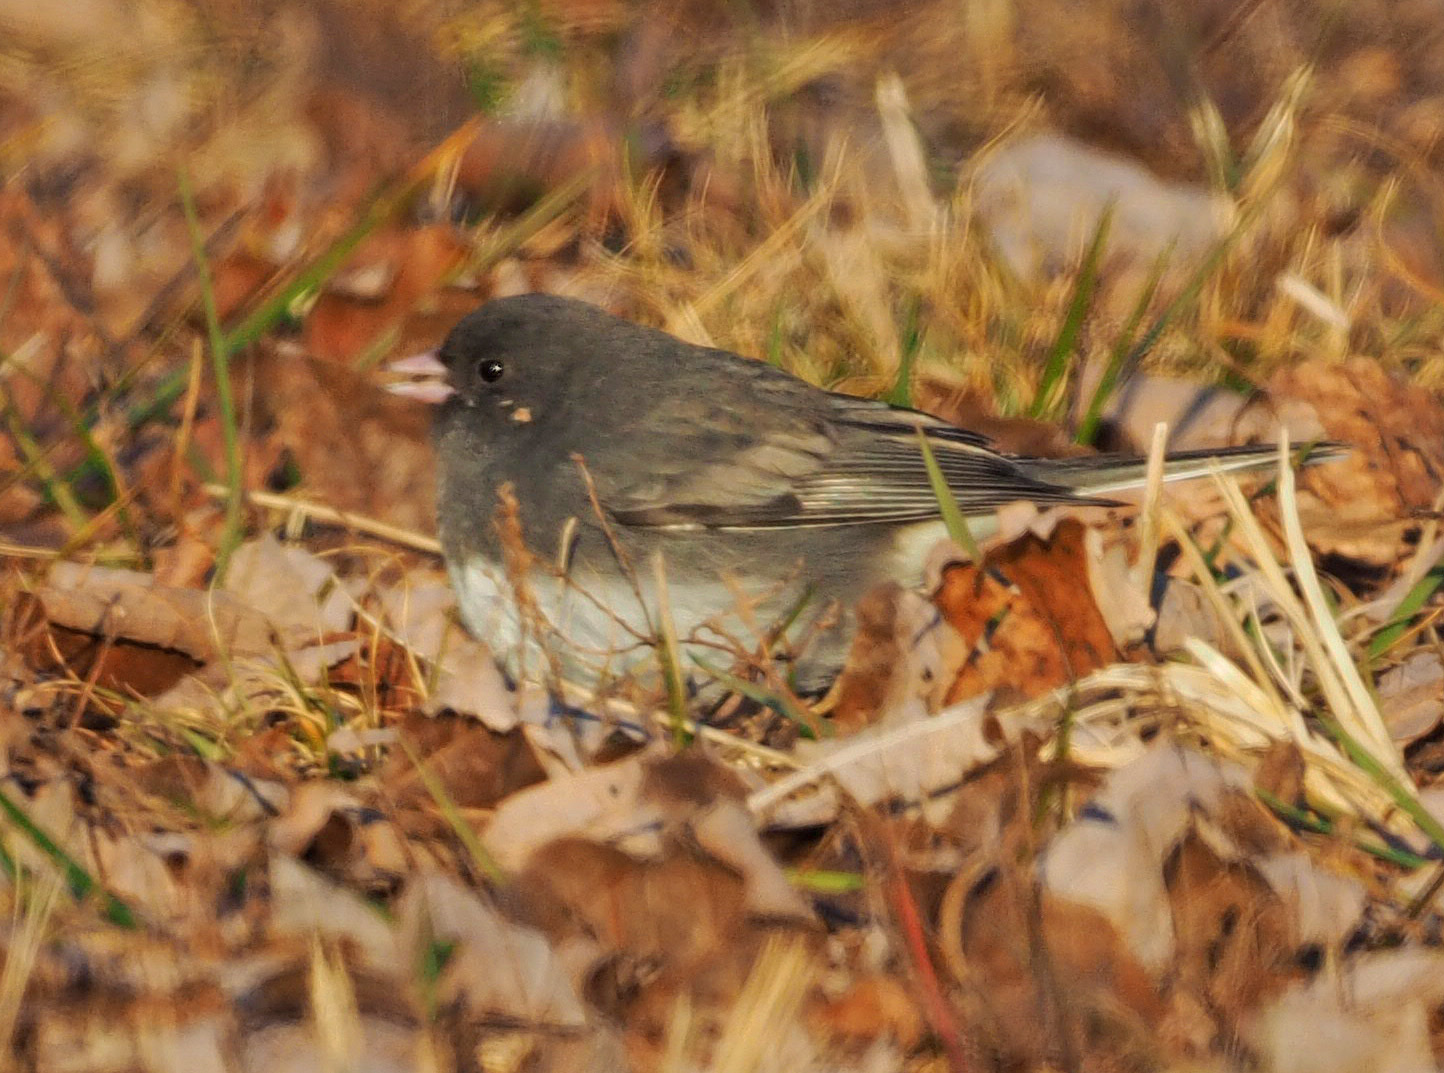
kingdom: Animalia
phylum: Chordata
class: Aves
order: Passeriformes
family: Passerellidae
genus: Junco
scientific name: Junco hyemalis
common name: Dark-eyed junco
